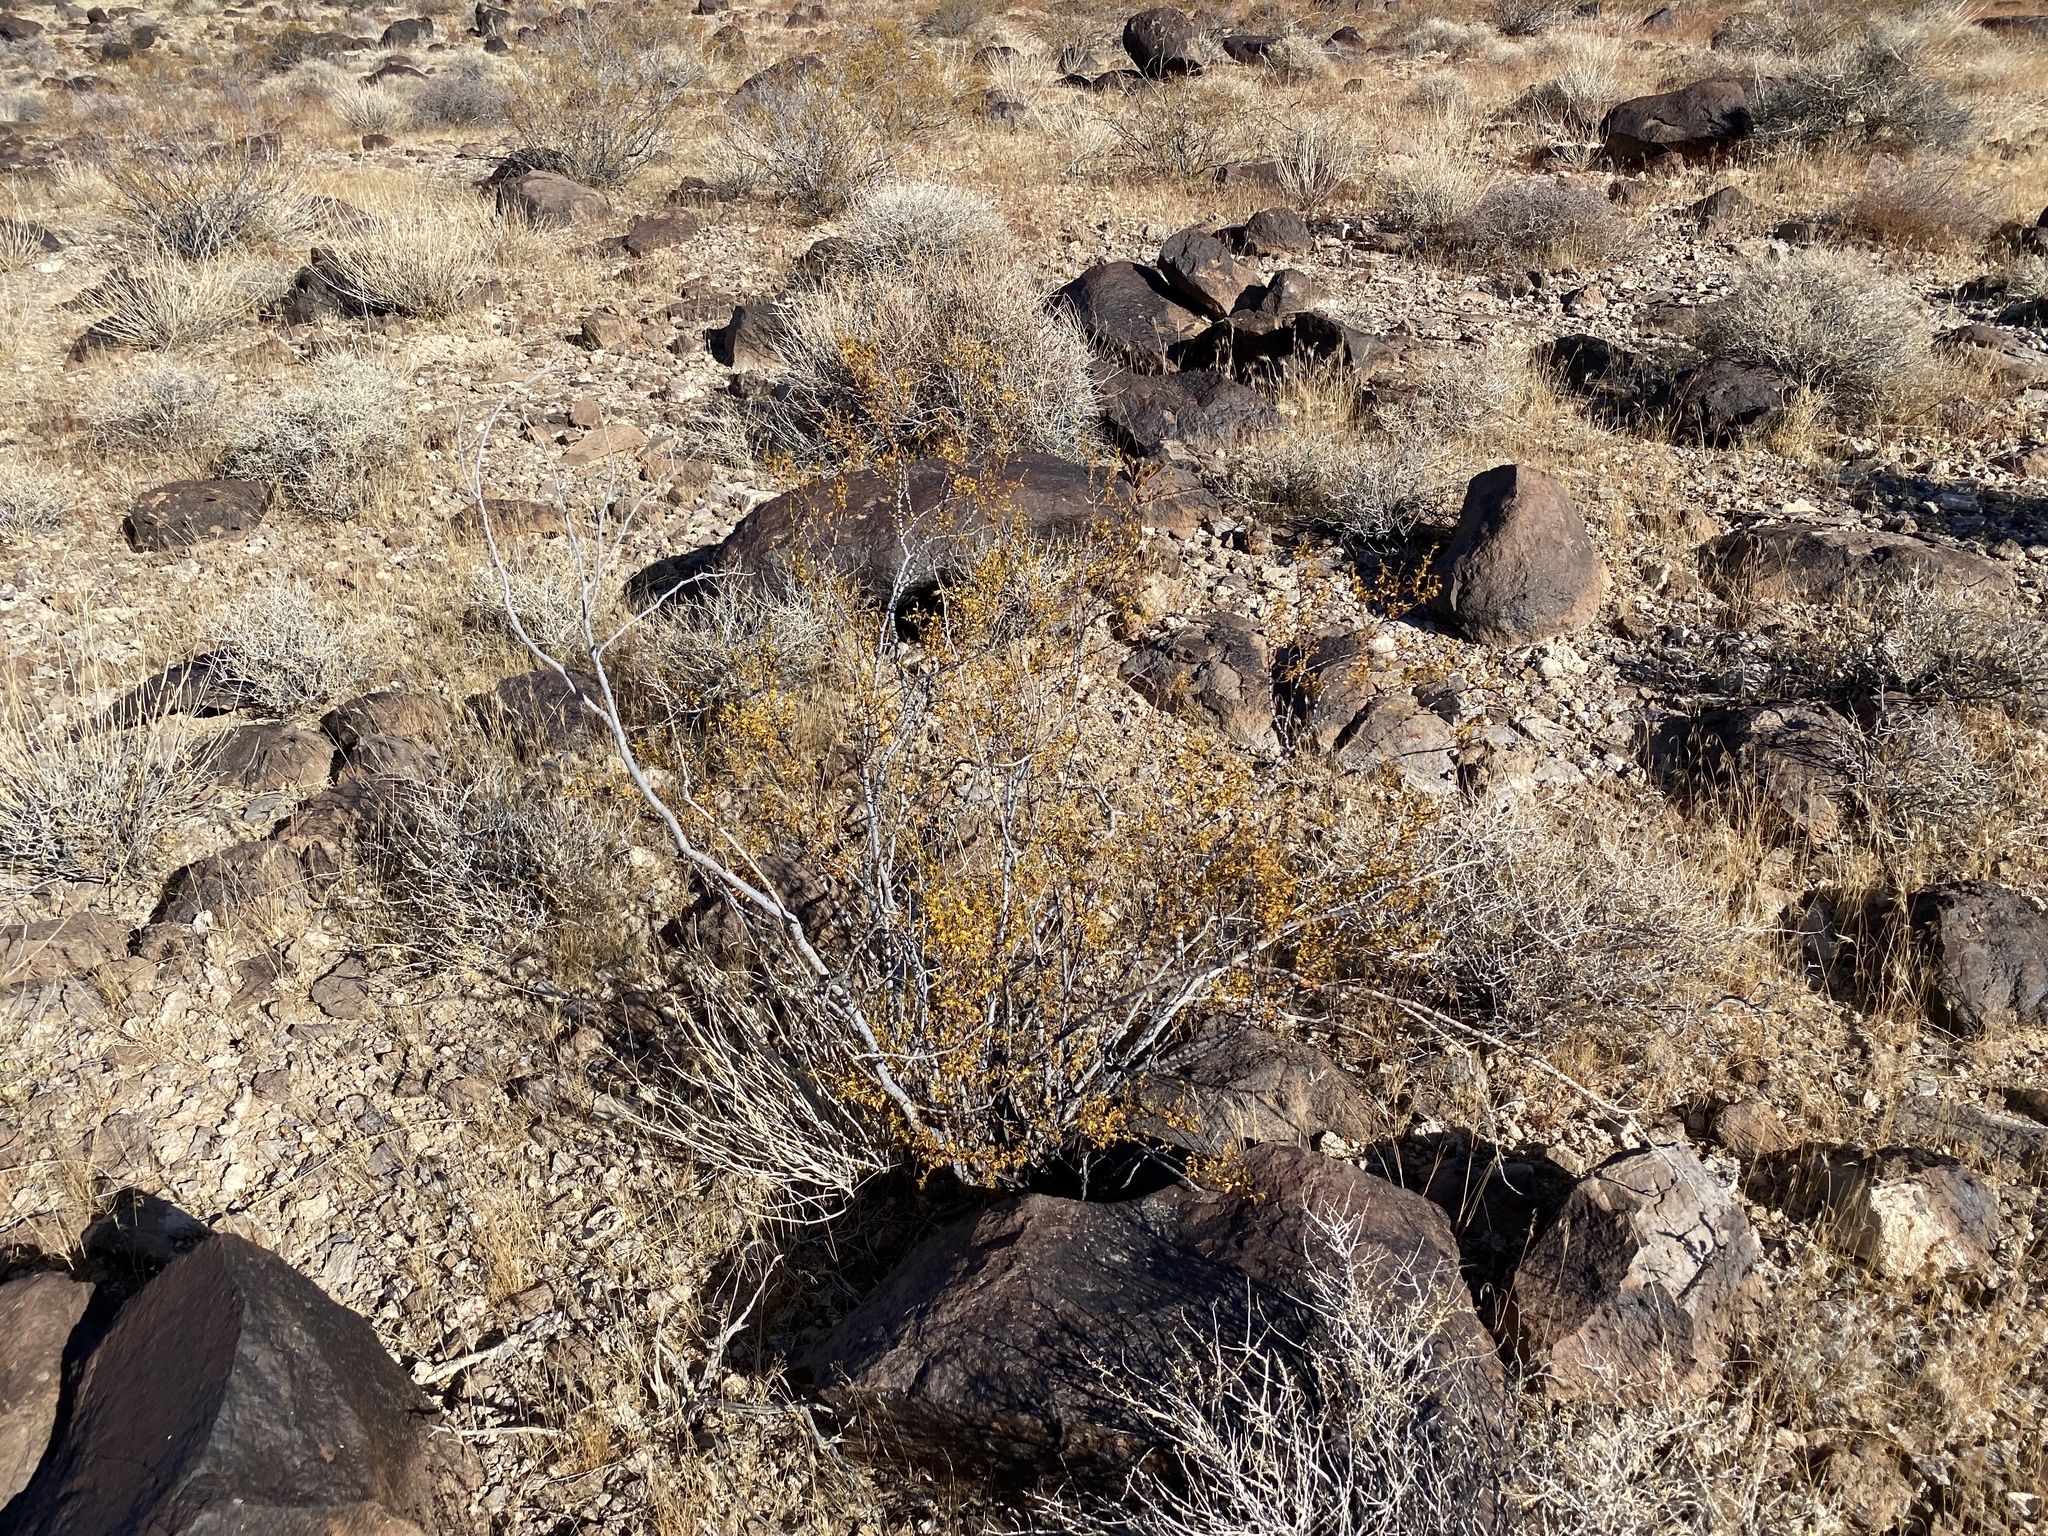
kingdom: Plantae
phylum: Tracheophyta
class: Magnoliopsida
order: Zygophyllales
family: Zygophyllaceae
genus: Larrea
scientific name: Larrea tridentata
